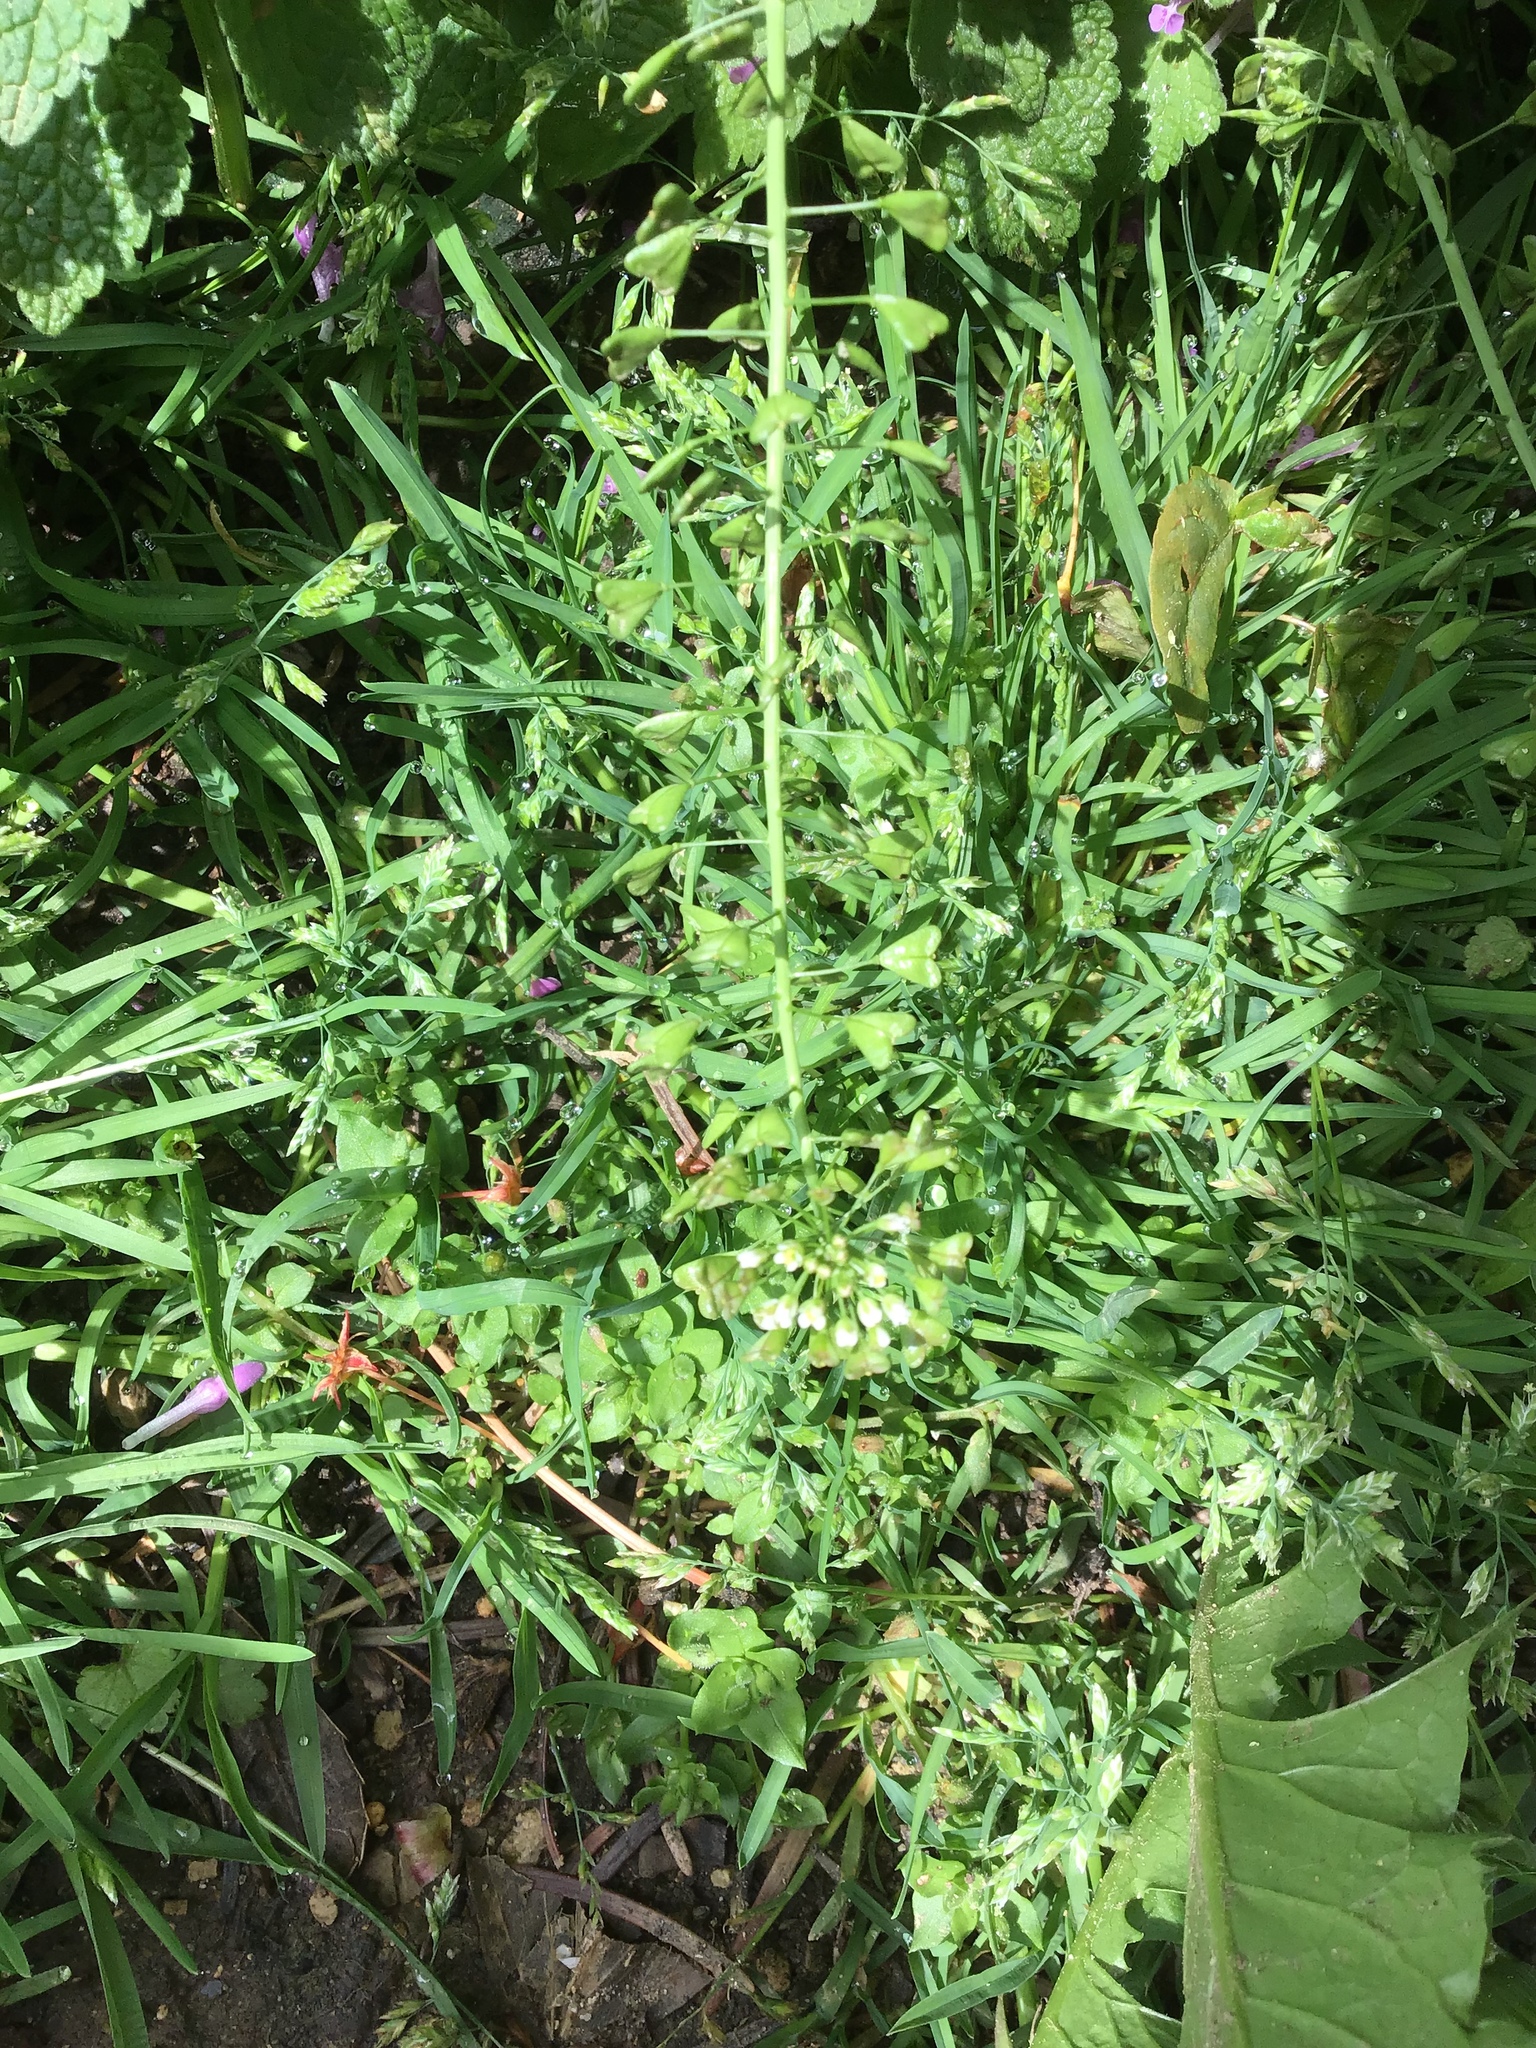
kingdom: Plantae
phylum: Tracheophyta
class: Magnoliopsida
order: Brassicales
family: Brassicaceae
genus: Capsella
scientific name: Capsella bursa-pastoris
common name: Shepherd's purse
